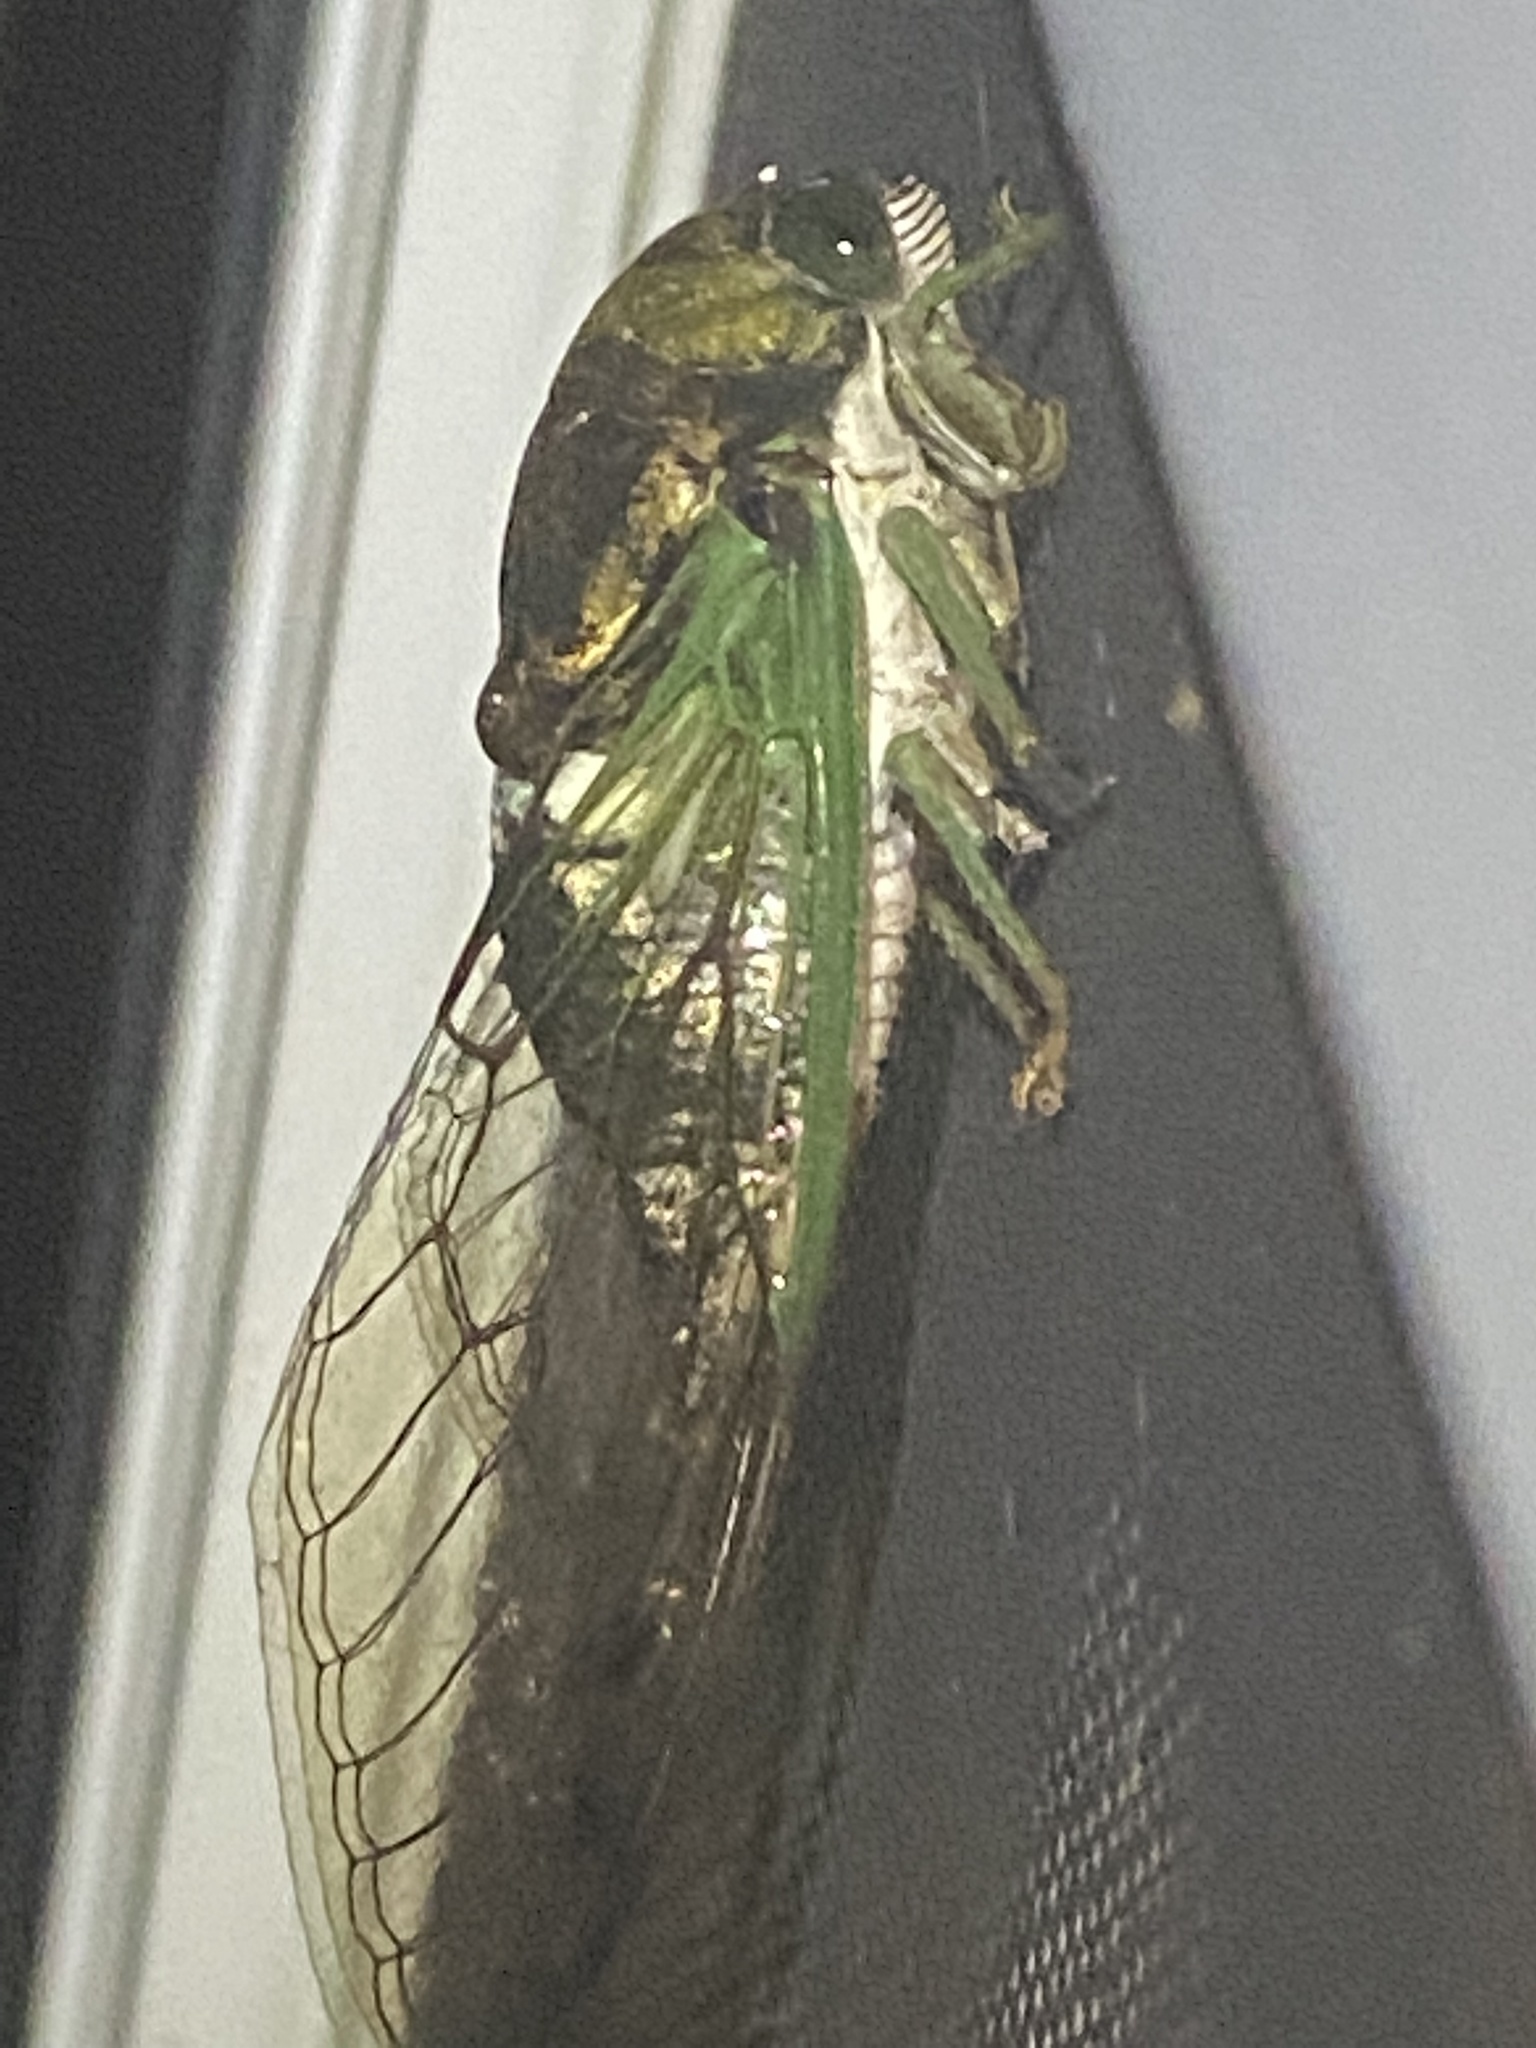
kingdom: Animalia
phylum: Arthropoda
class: Insecta
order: Hemiptera
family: Cicadidae
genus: Neotibicen
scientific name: Neotibicen tibicen
